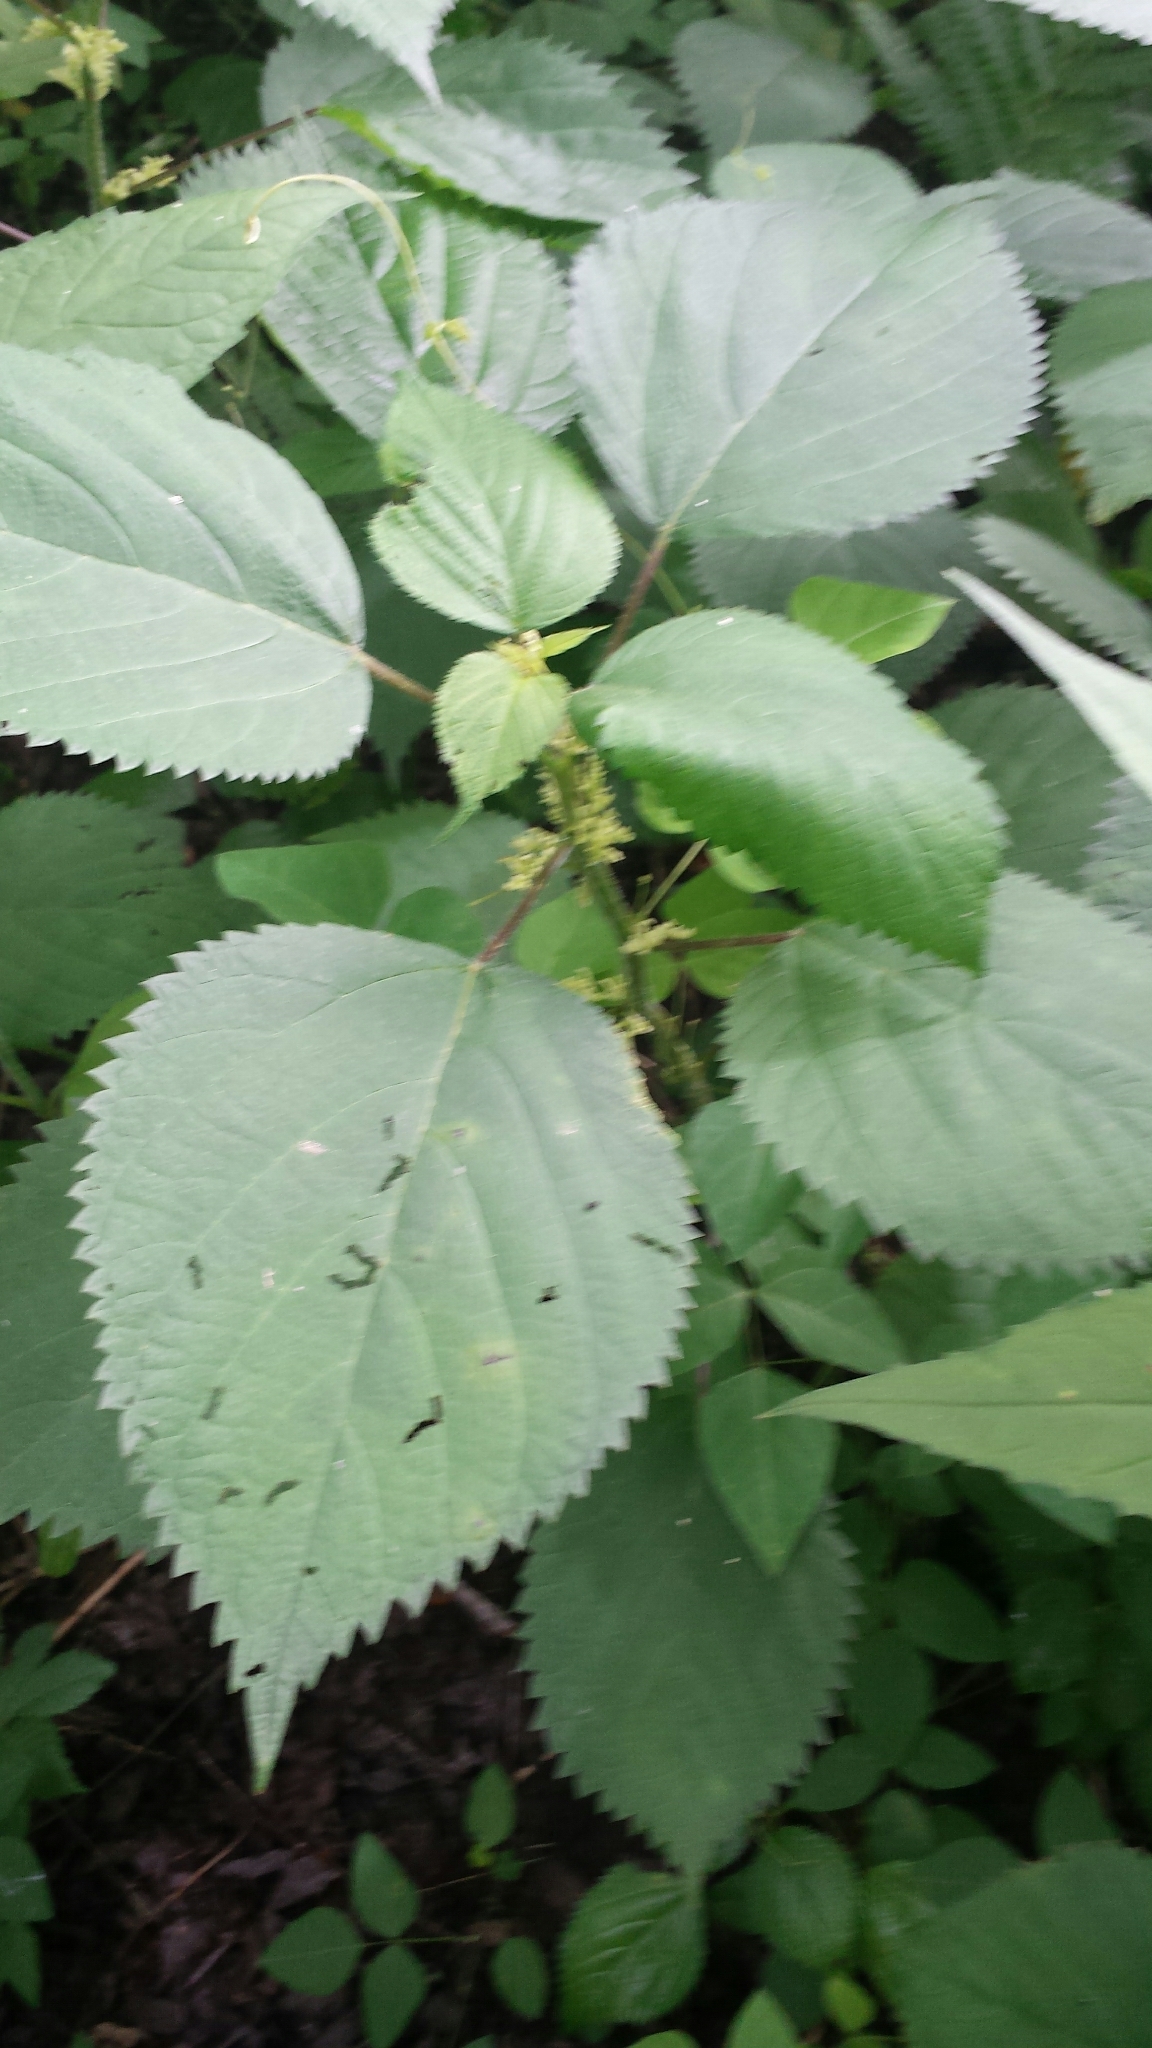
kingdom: Plantae
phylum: Tracheophyta
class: Magnoliopsida
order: Rosales
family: Urticaceae
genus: Laportea
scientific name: Laportea canadensis
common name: Canada nettle
